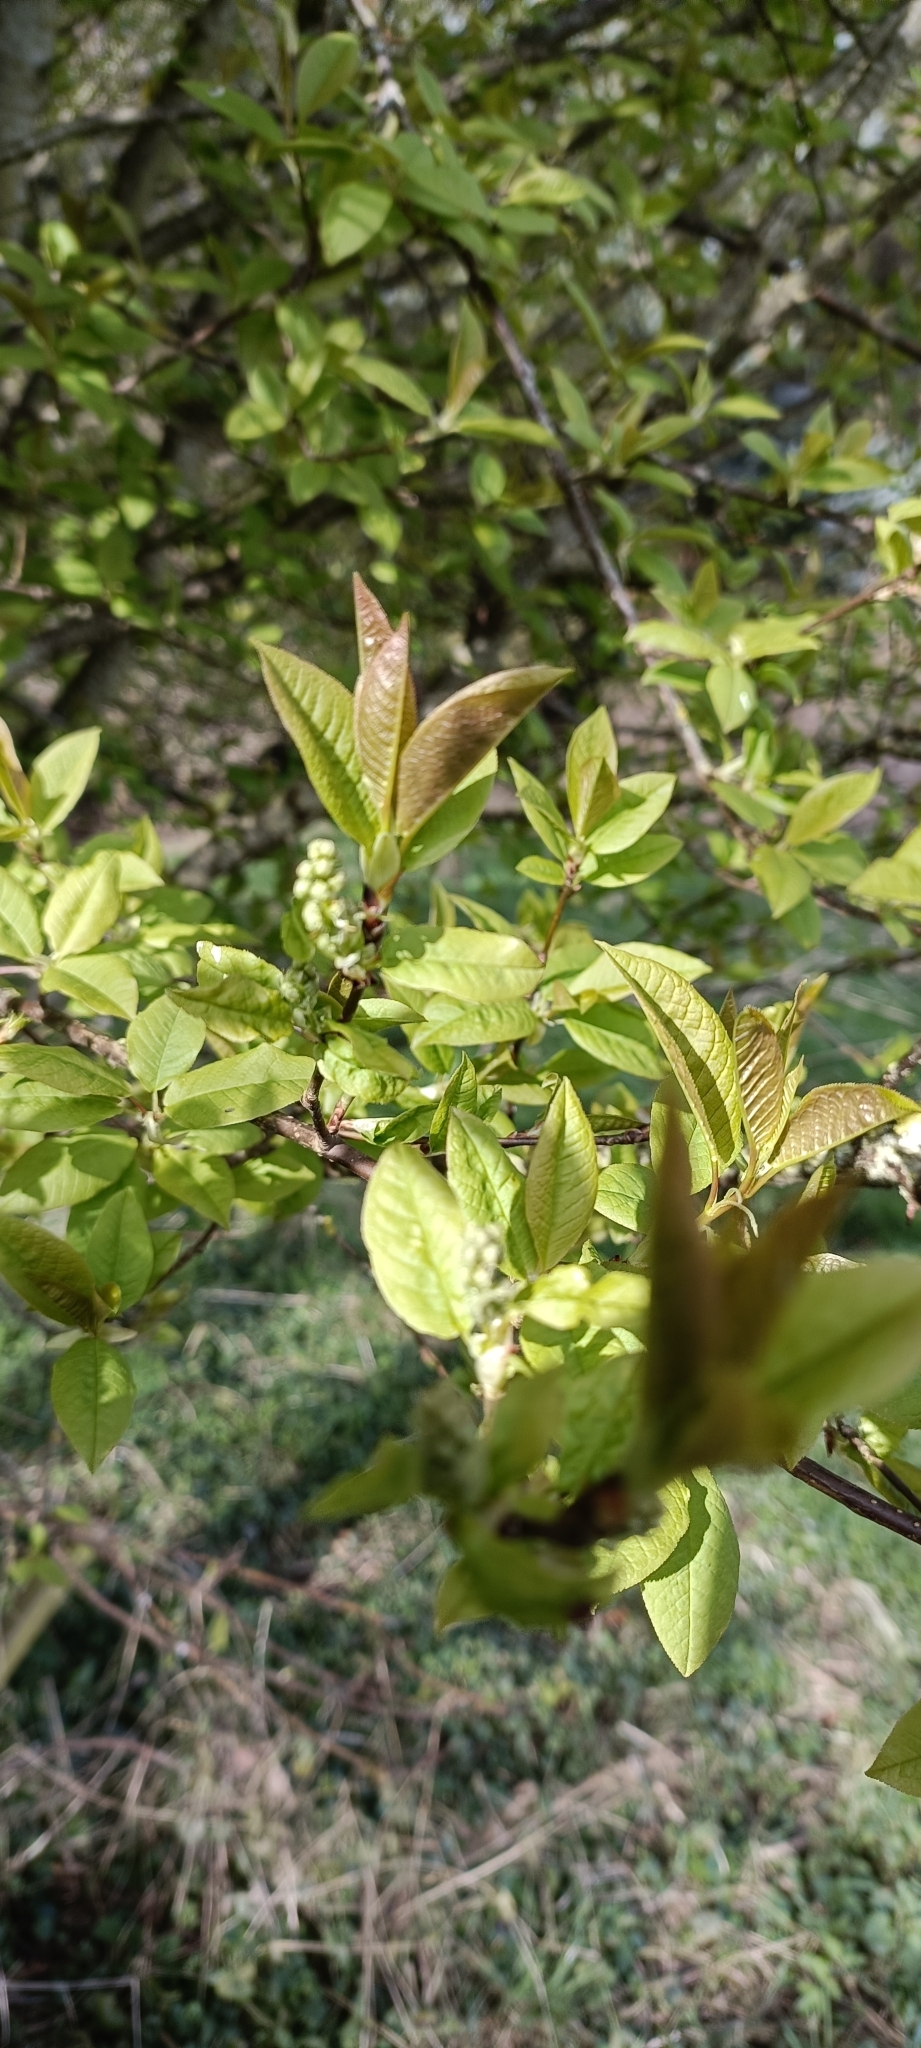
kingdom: Plantae
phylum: Tracheophyta
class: Magnoliopsida
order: Rosales
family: Rosaceae
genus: Prunus
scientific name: Prunus padus
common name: Bird cherry
